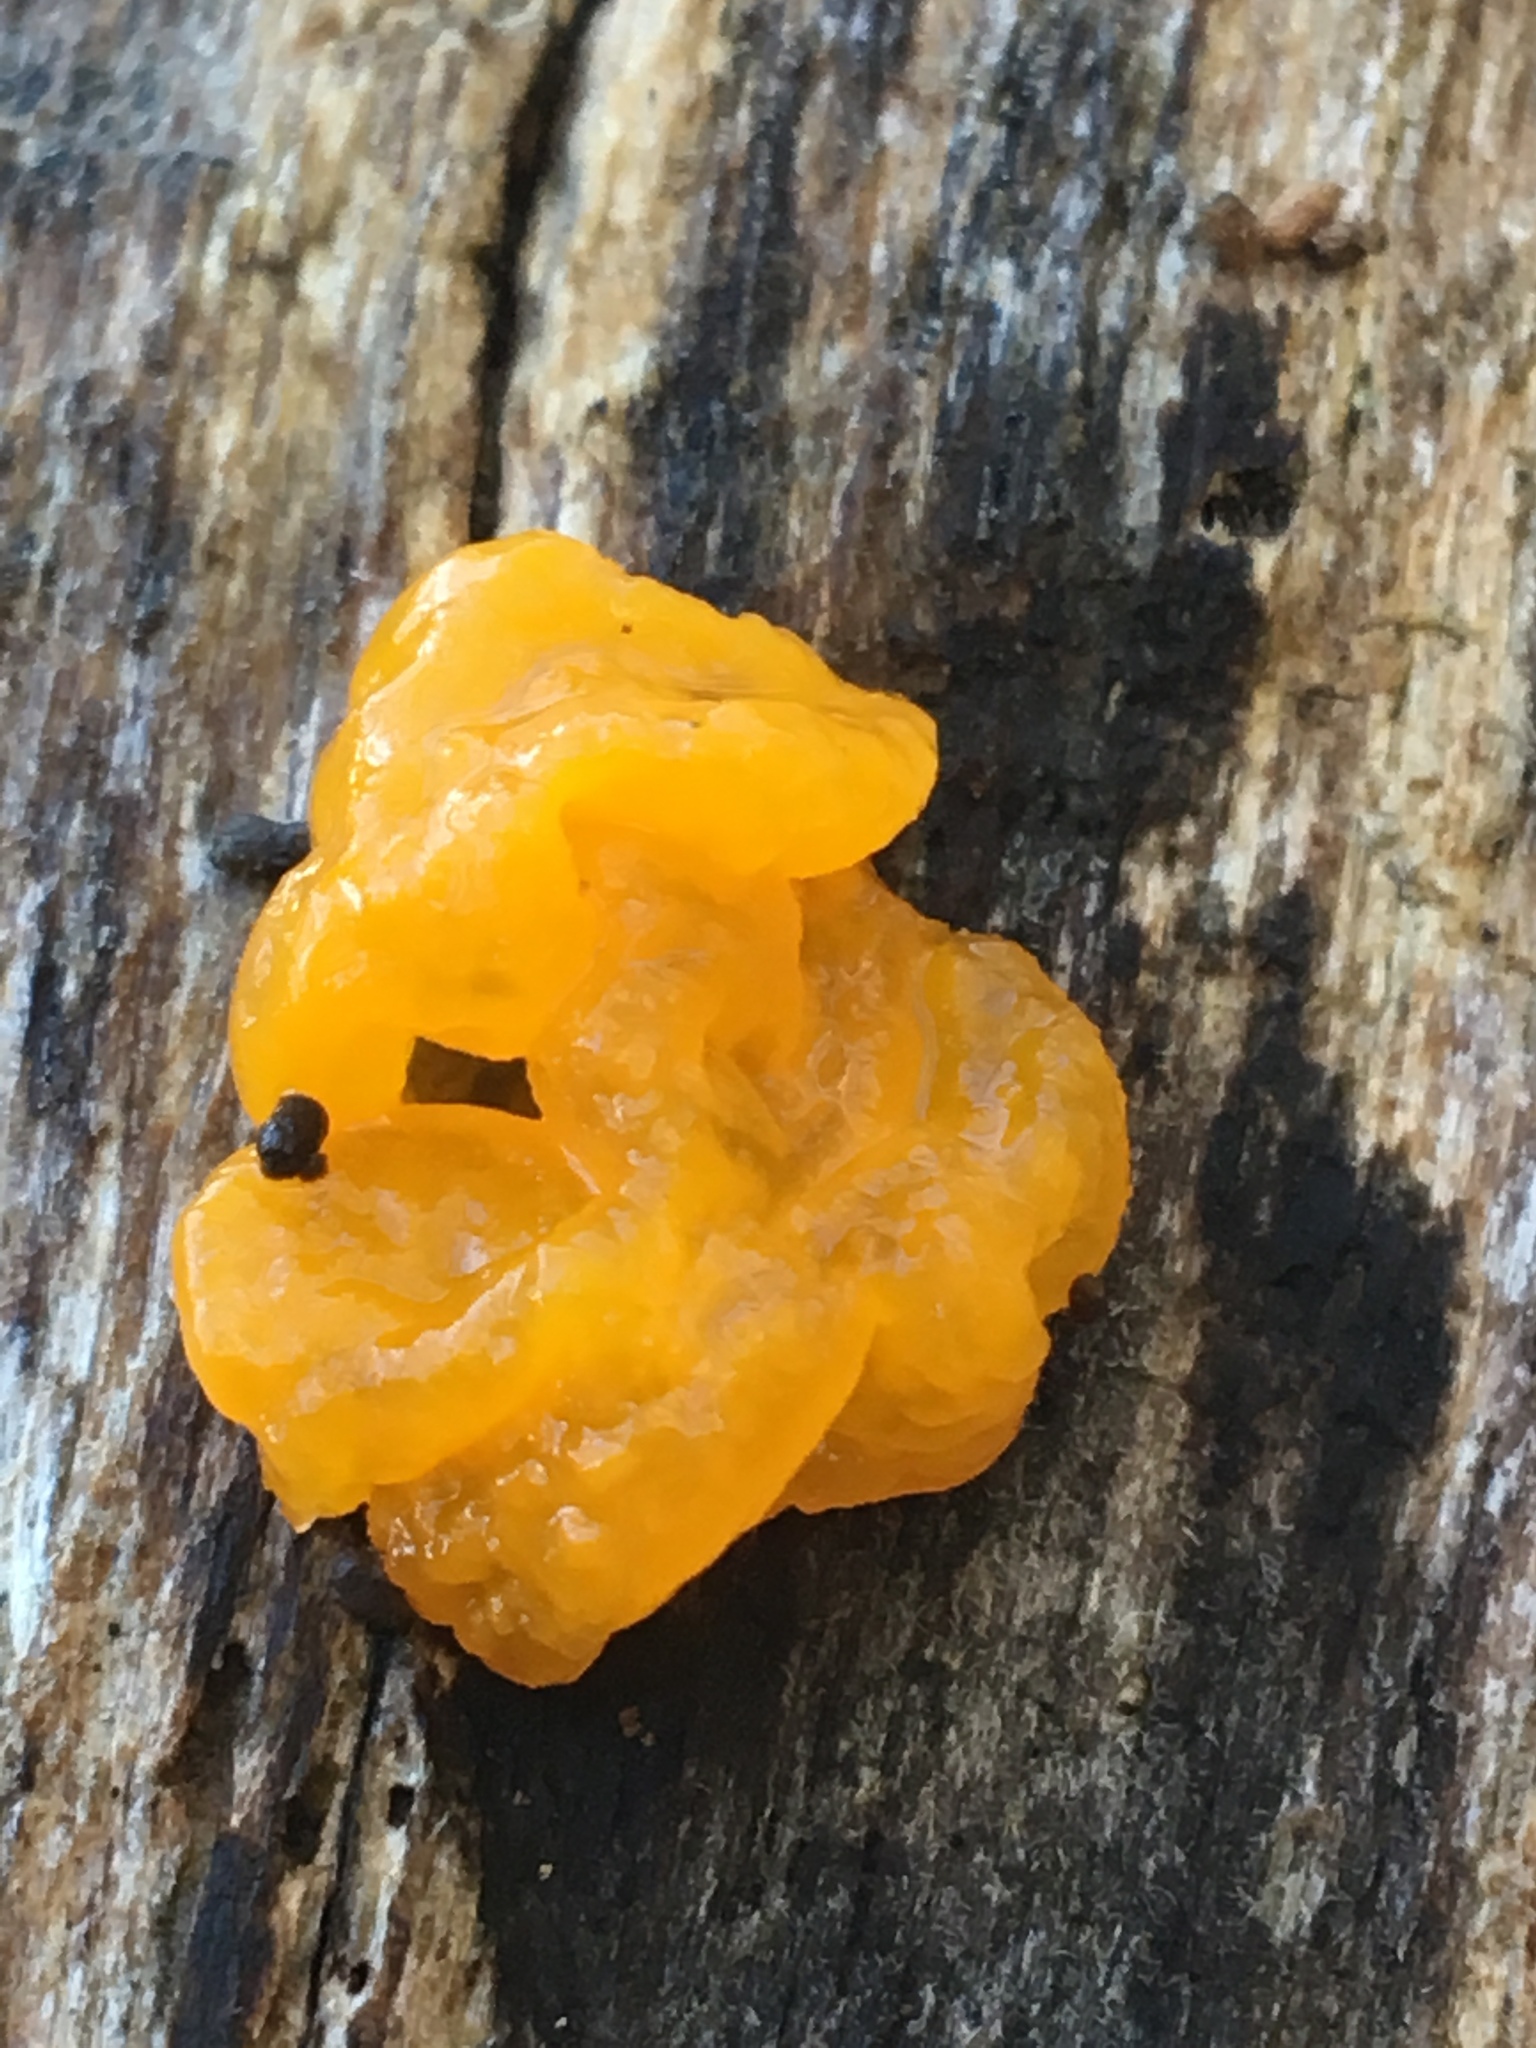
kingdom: Fungi
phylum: Basidiomycota
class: Tremellomycetes
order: Tremellales
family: Tremellaceae
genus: Tremella
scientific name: Tremella mesenterica
